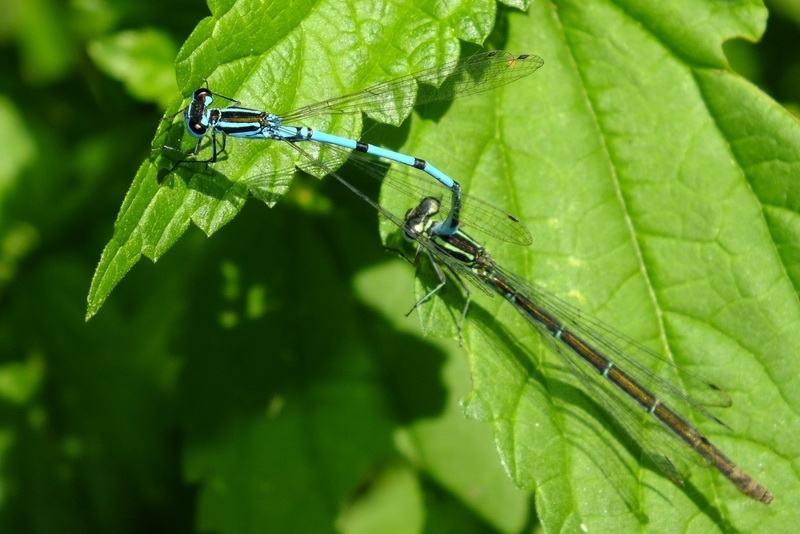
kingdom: Animalia
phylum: Arthropoda
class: Insecta
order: Odonata
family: Coenagrionidae
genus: Coenagrion
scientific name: Coenagrion puella
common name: Azure damselfly
